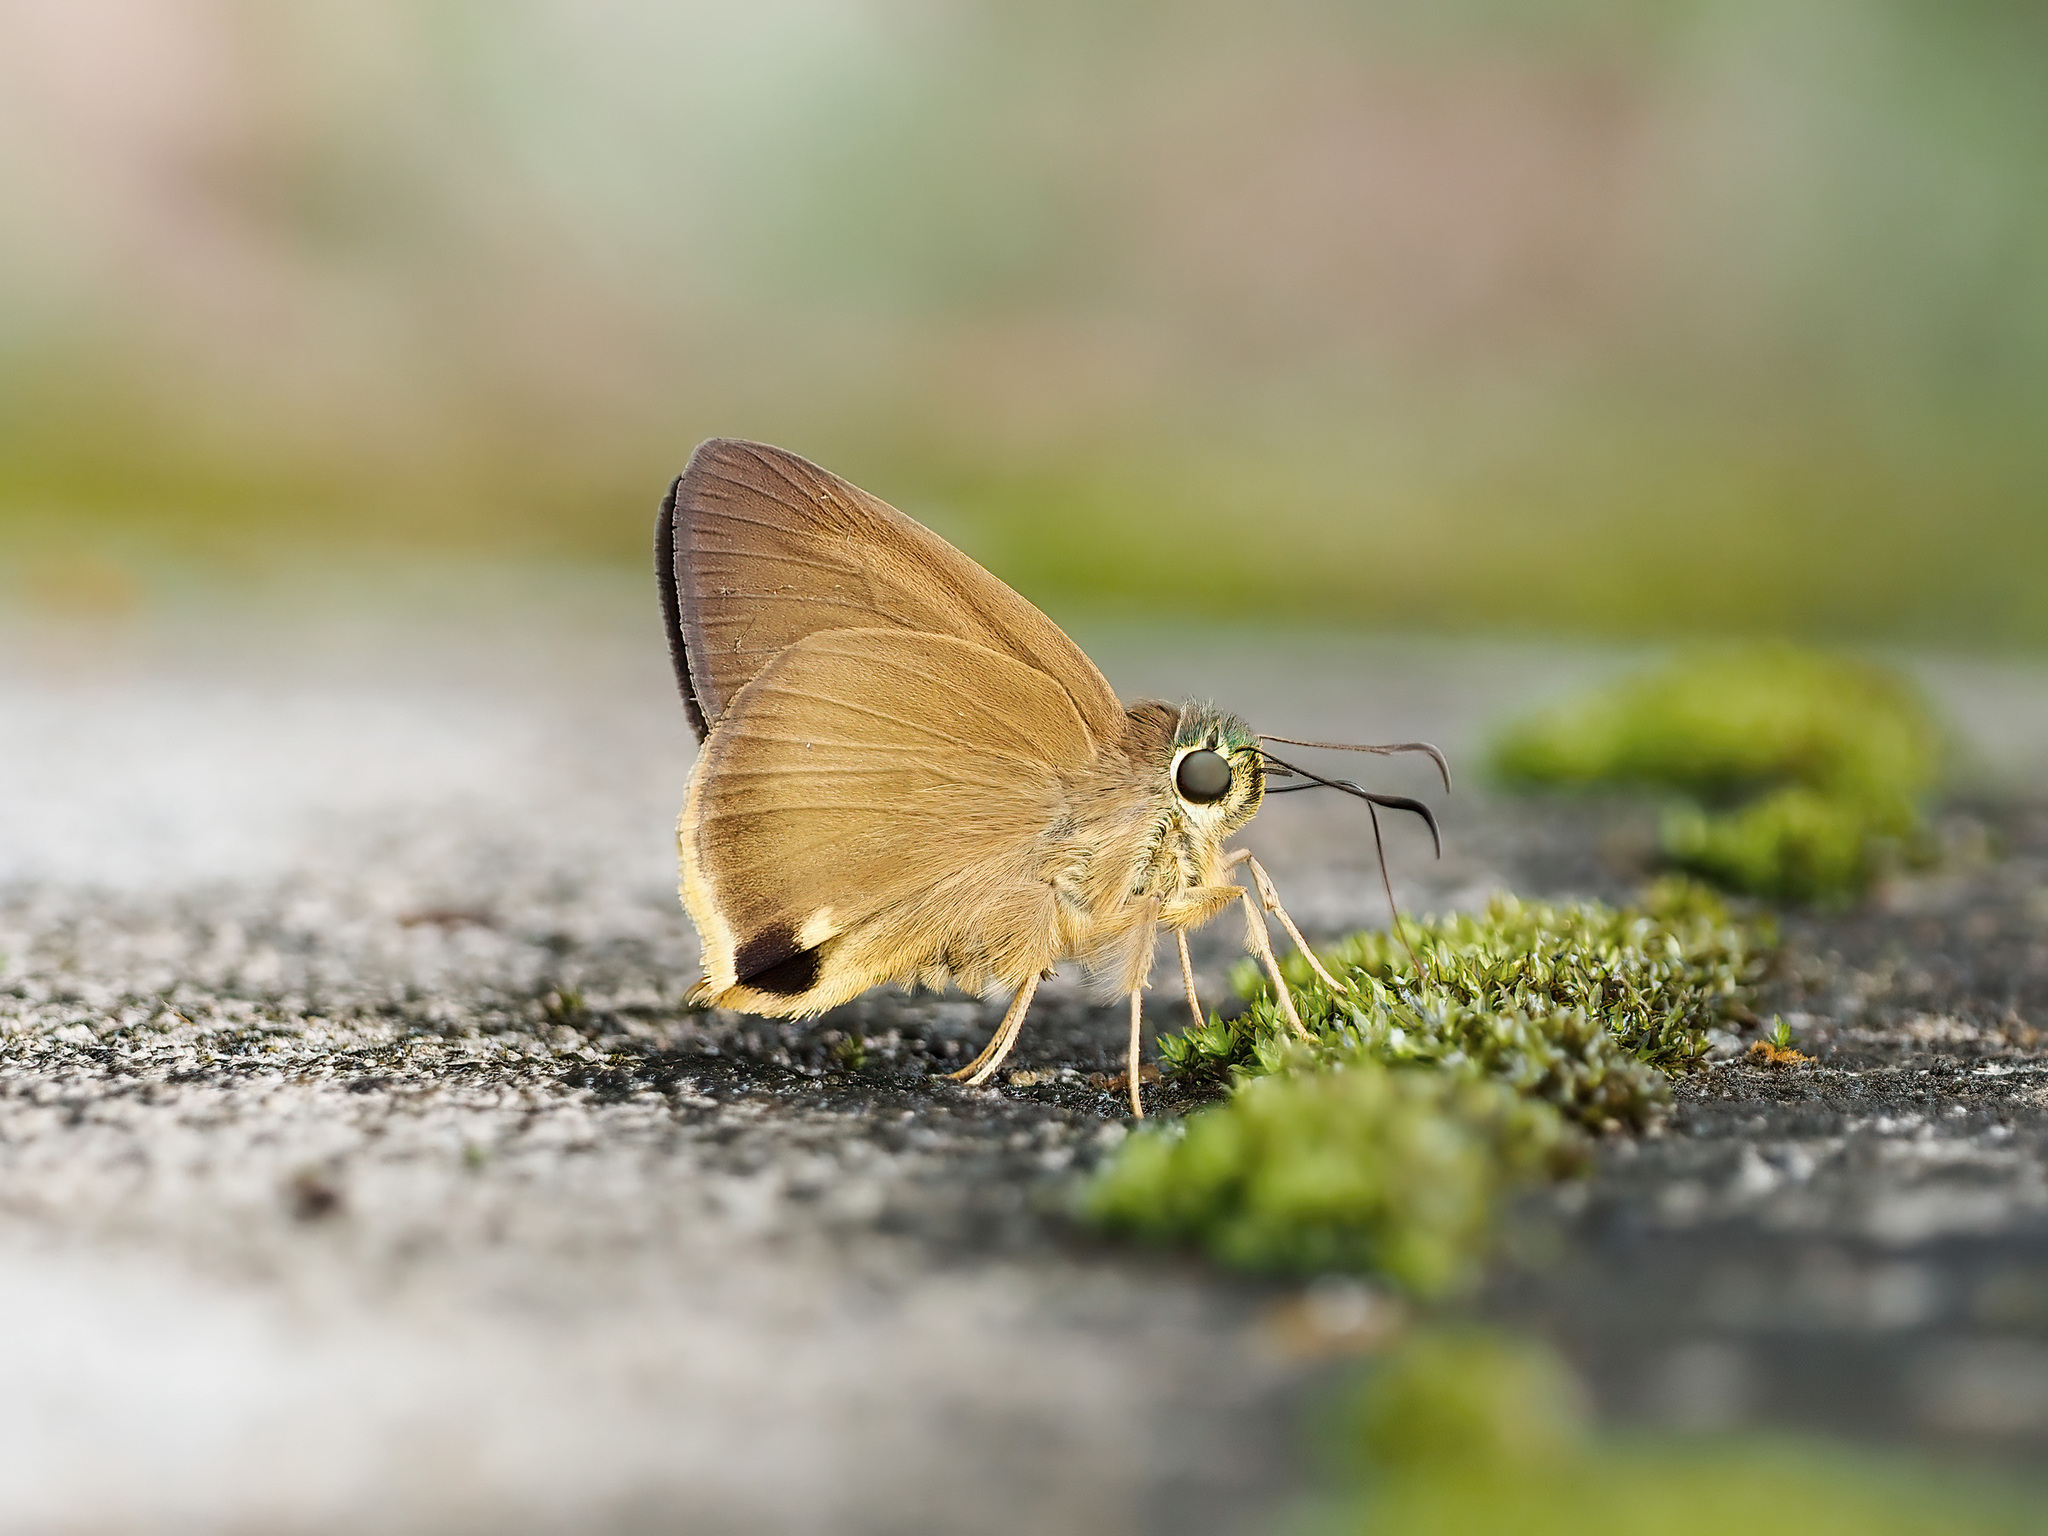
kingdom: Animalia
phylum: Arthropoda
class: Insecta
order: Lepidoptera
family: Hesperiidae
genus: Hasora
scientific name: Hasora mus
